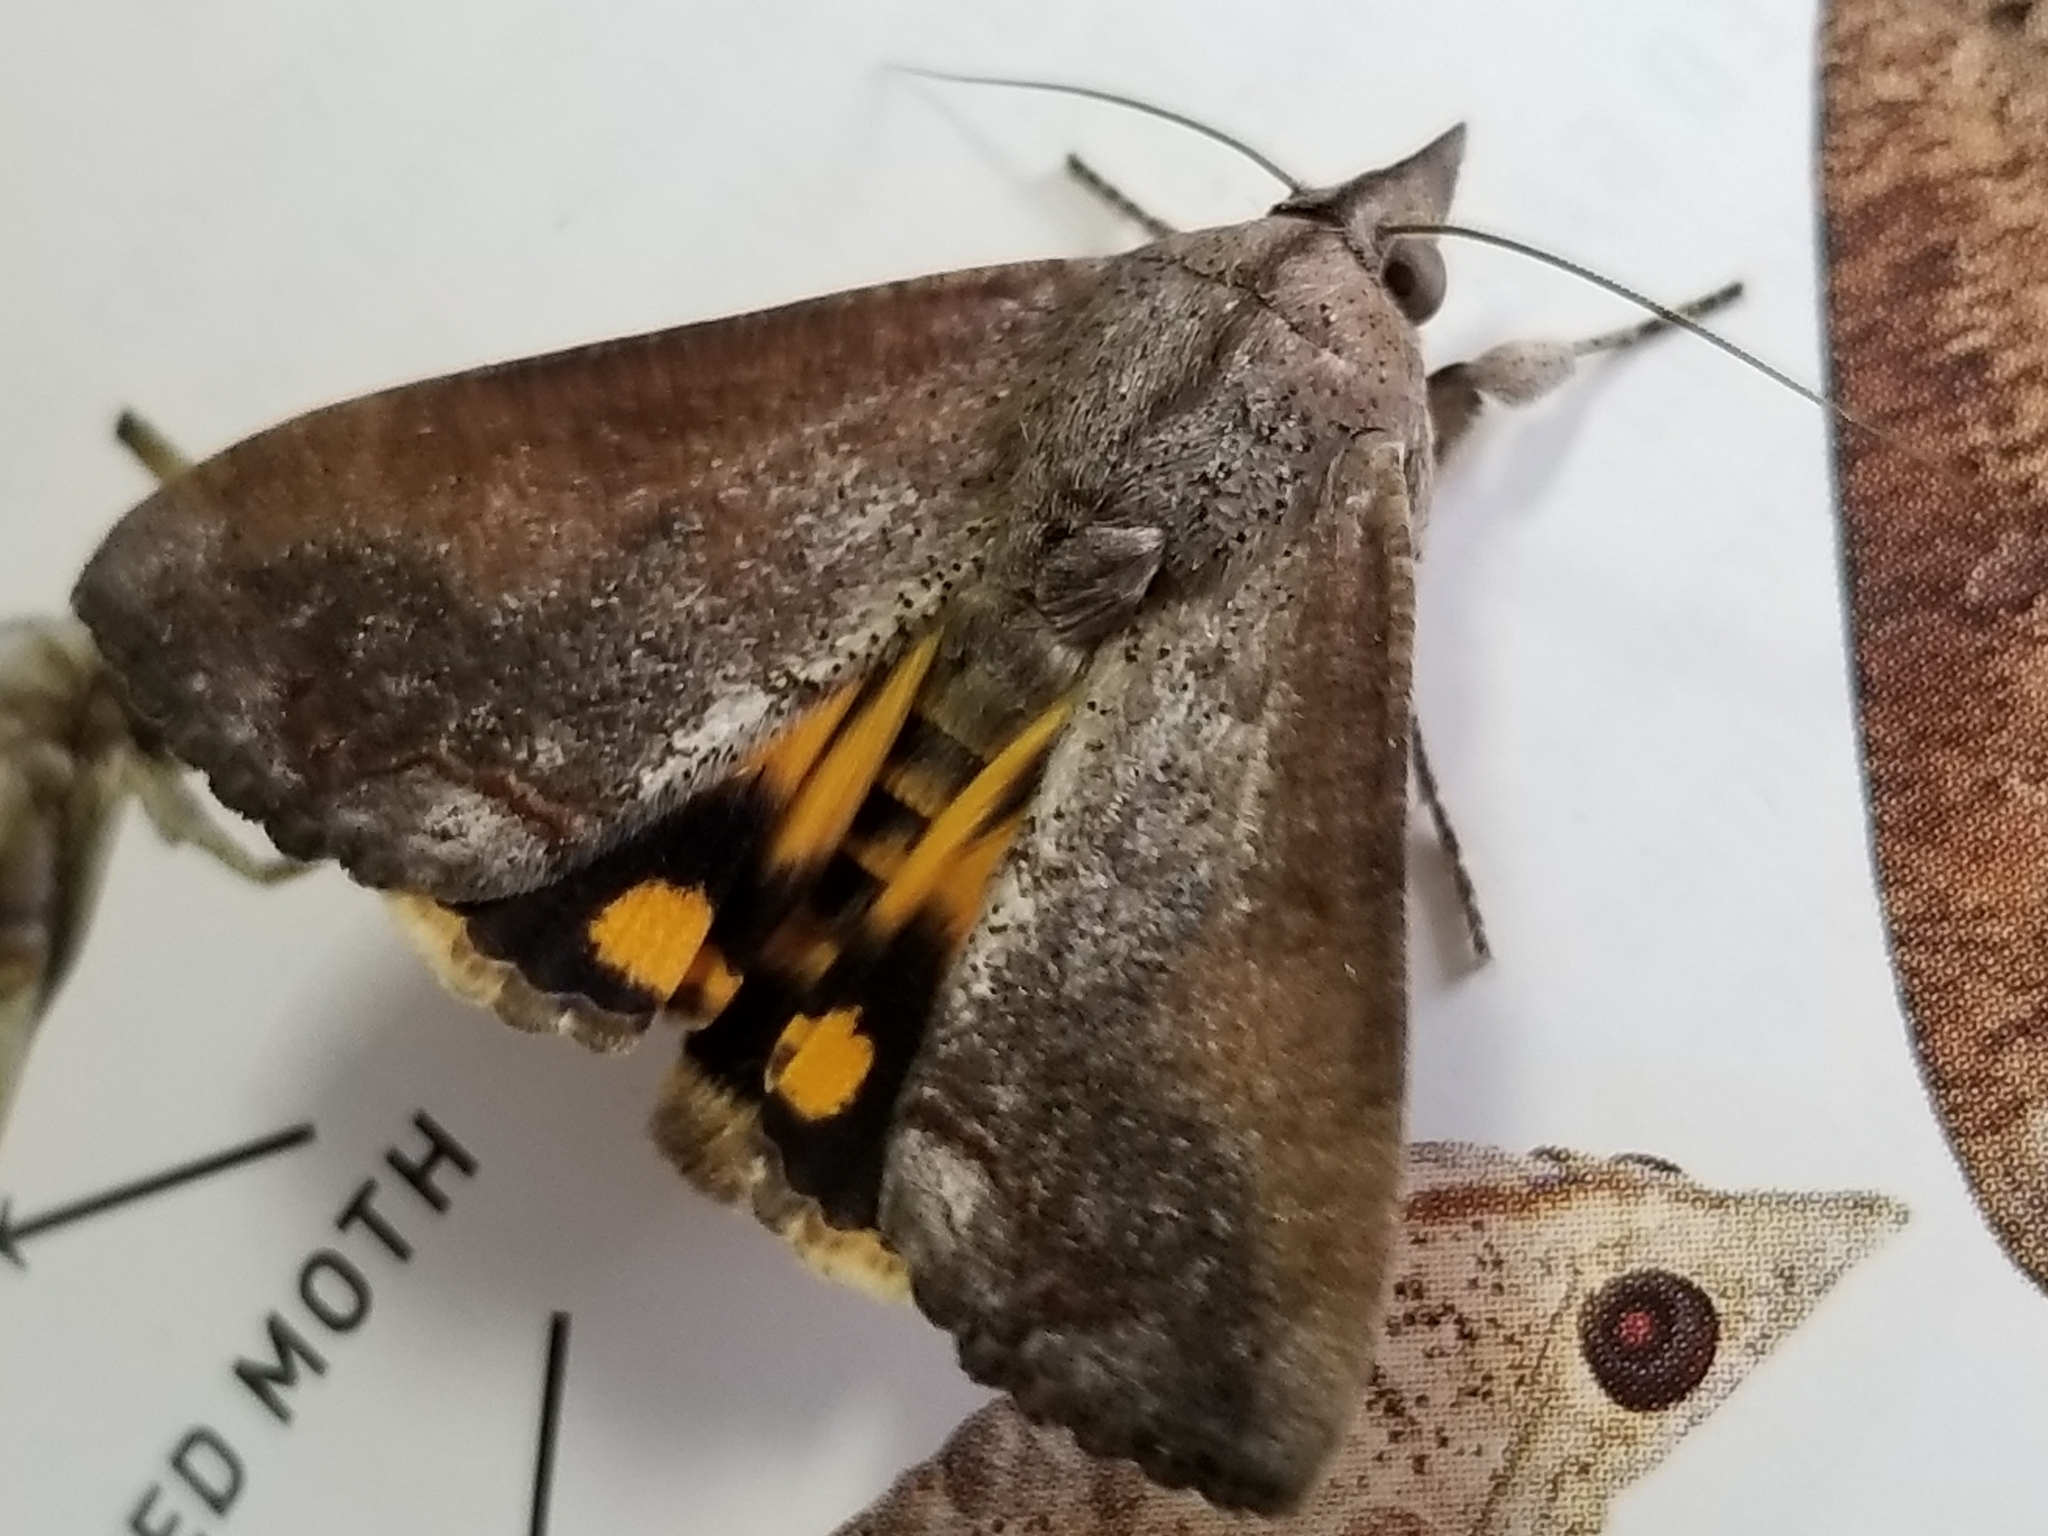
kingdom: Animalia
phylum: Arthropoda
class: Insecta
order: Lepidoptera
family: Erebidae
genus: Hypocala
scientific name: Hypocala andremona
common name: Hypocala moth
